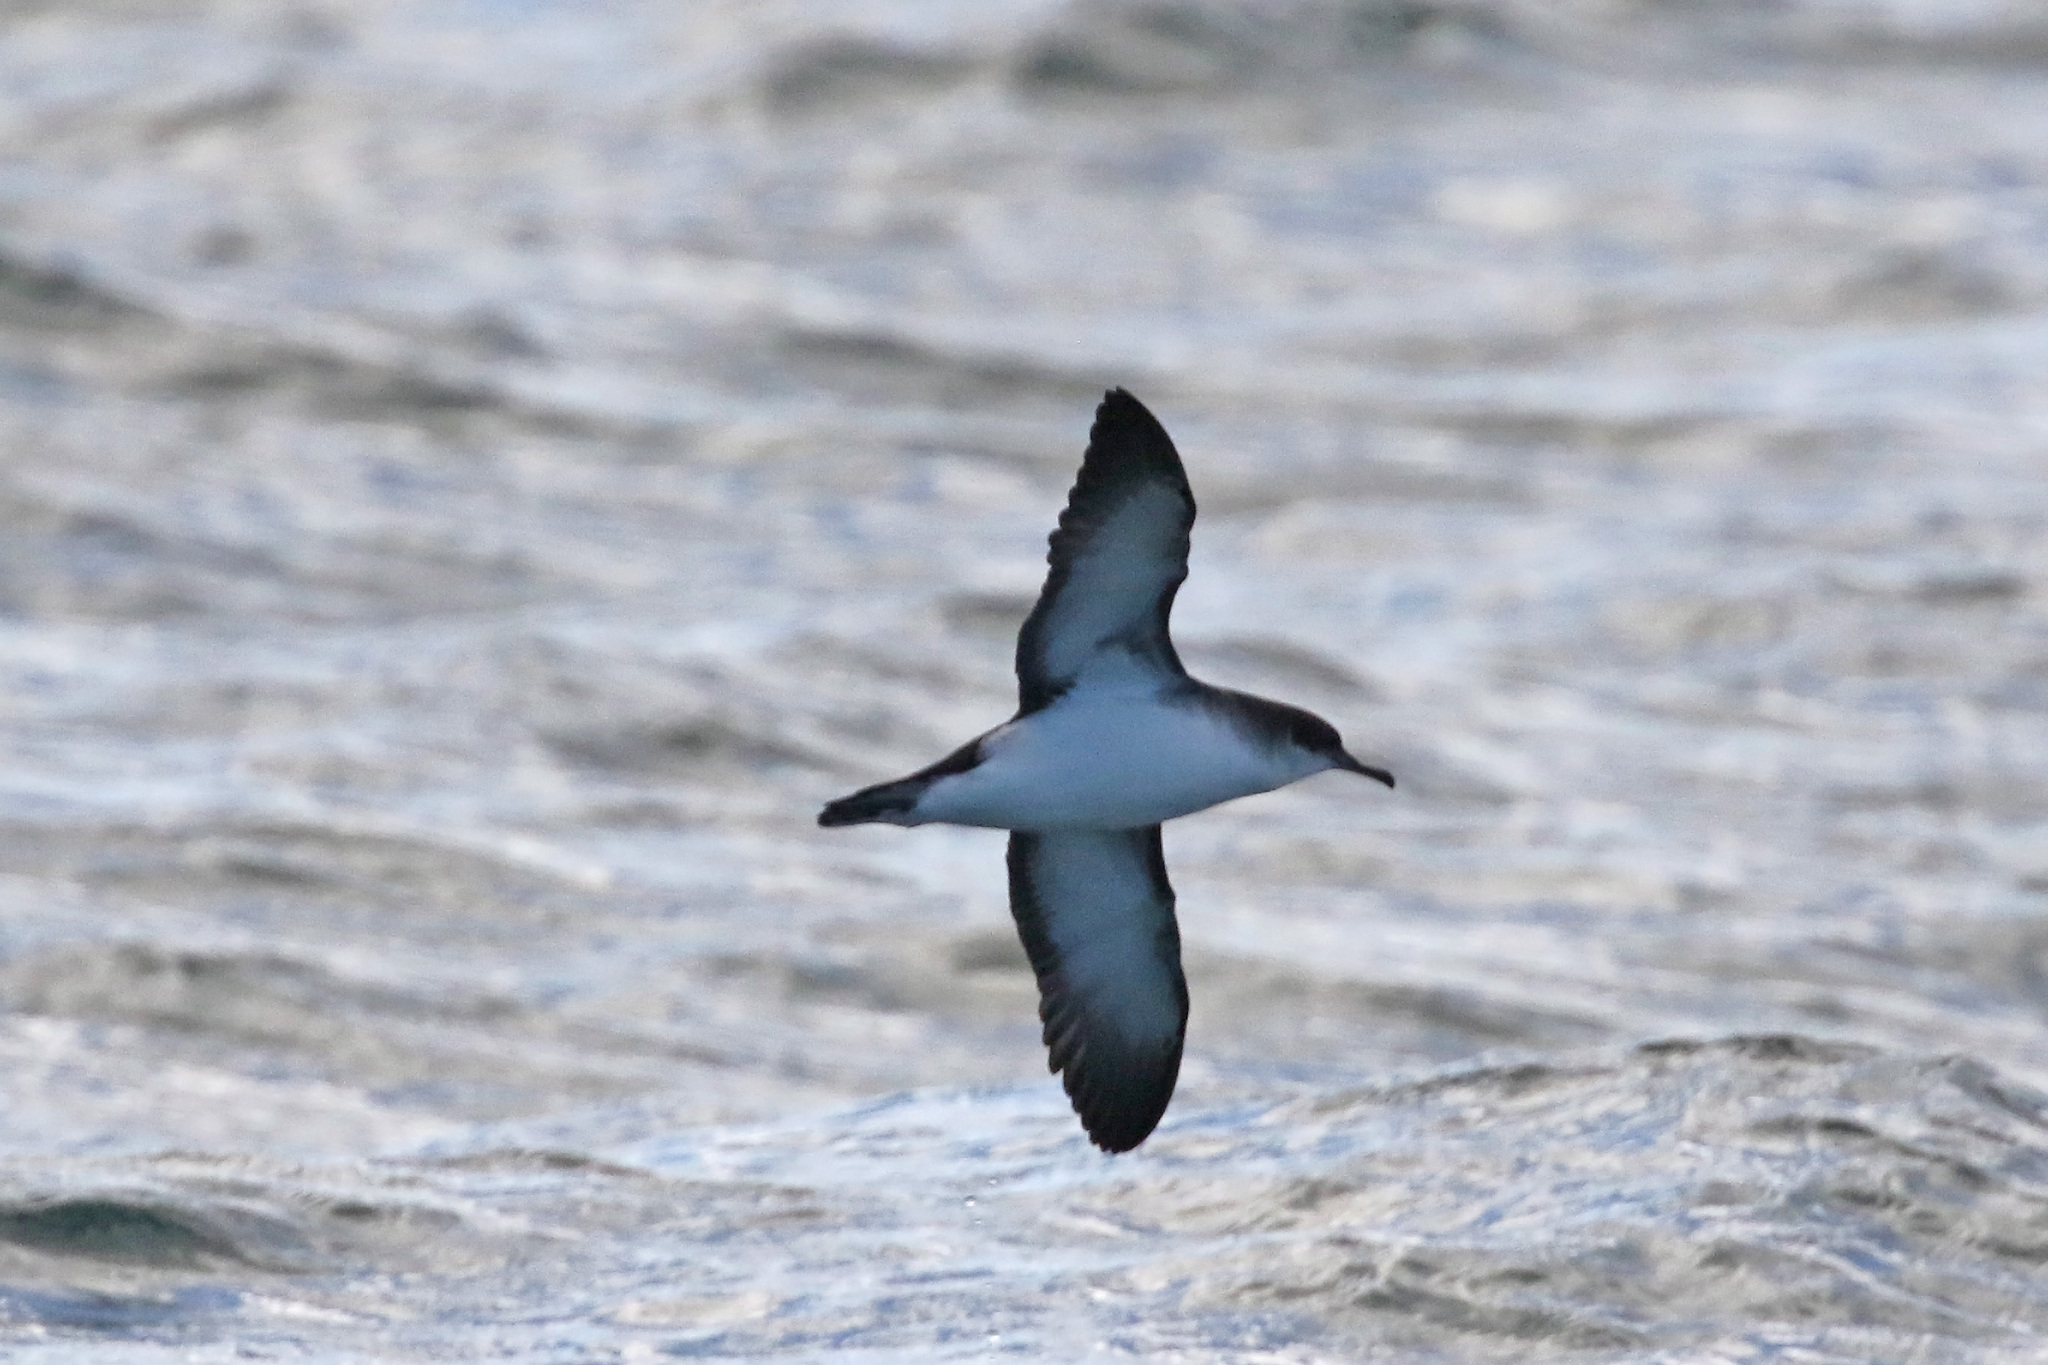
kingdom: Animalia
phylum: Chordata
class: Aves
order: Procellariiformes
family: Procellariidae
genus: Puffinus
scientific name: Puffinus puffinus
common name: Manx shearwater
